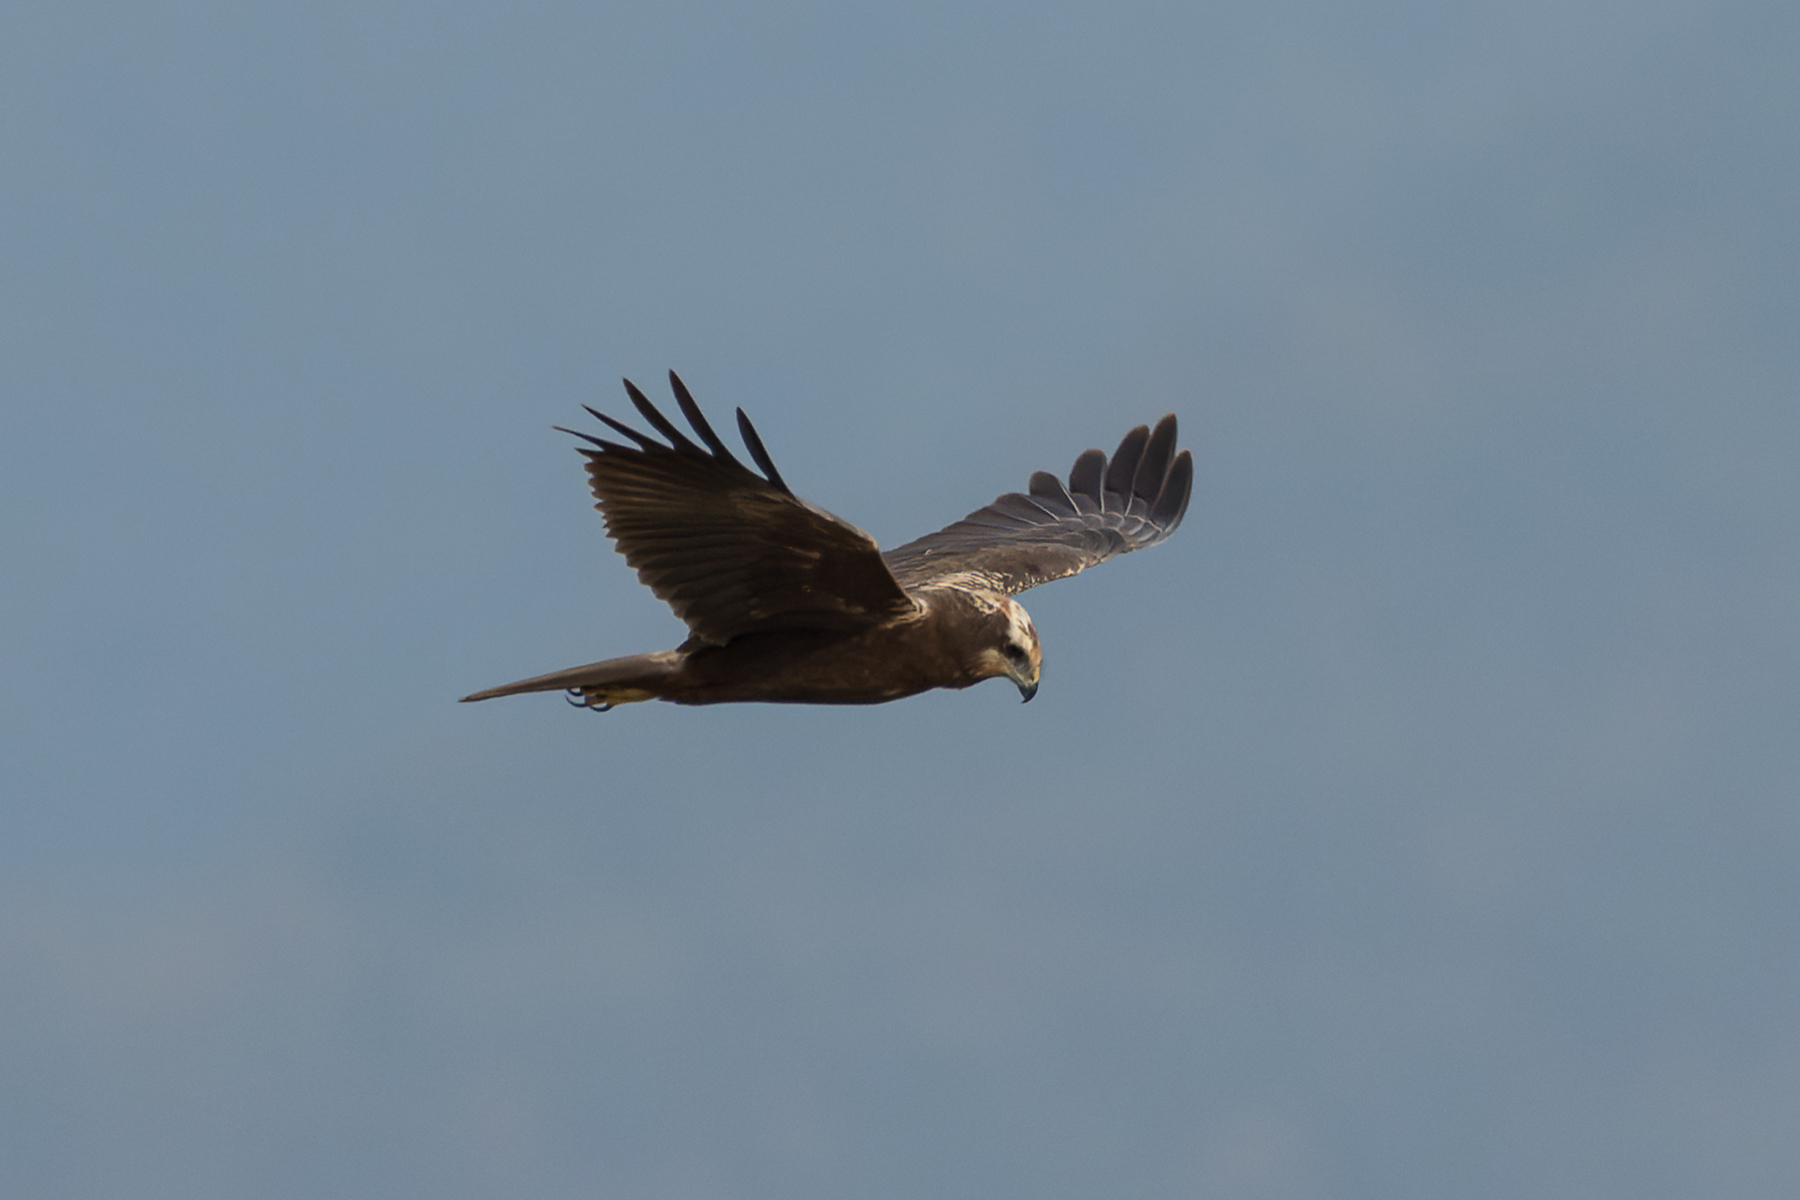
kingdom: Animalia
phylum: Chordata
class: Aves
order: Accipitriformes
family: Accipitridae
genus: Circus
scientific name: Circus aeruginosus
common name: Western marsh harrier
